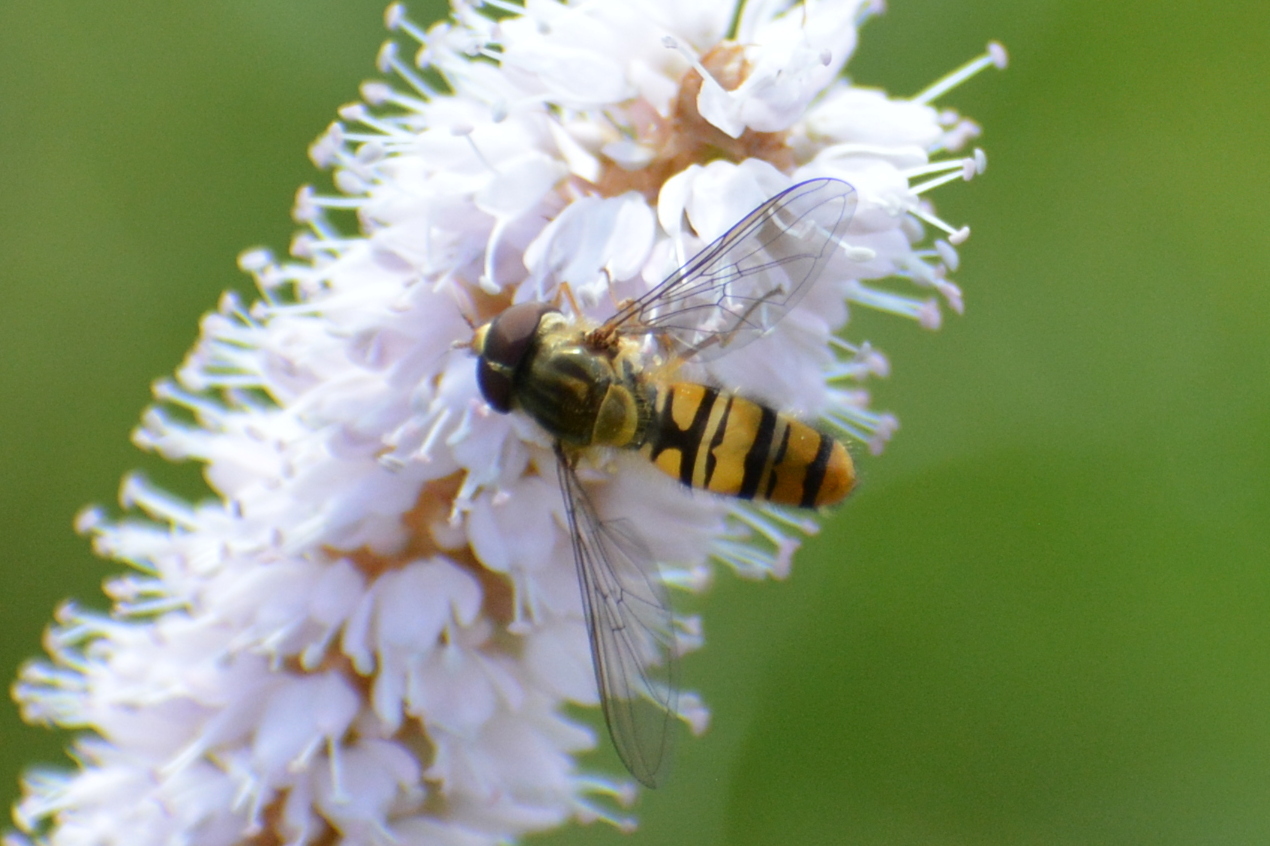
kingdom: Animalia
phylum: Arthropoda
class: Insecta
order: Diptera
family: Syrphidae
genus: Episyrphus
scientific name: Episyrphus balteatus
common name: Marmalade hoverfly
